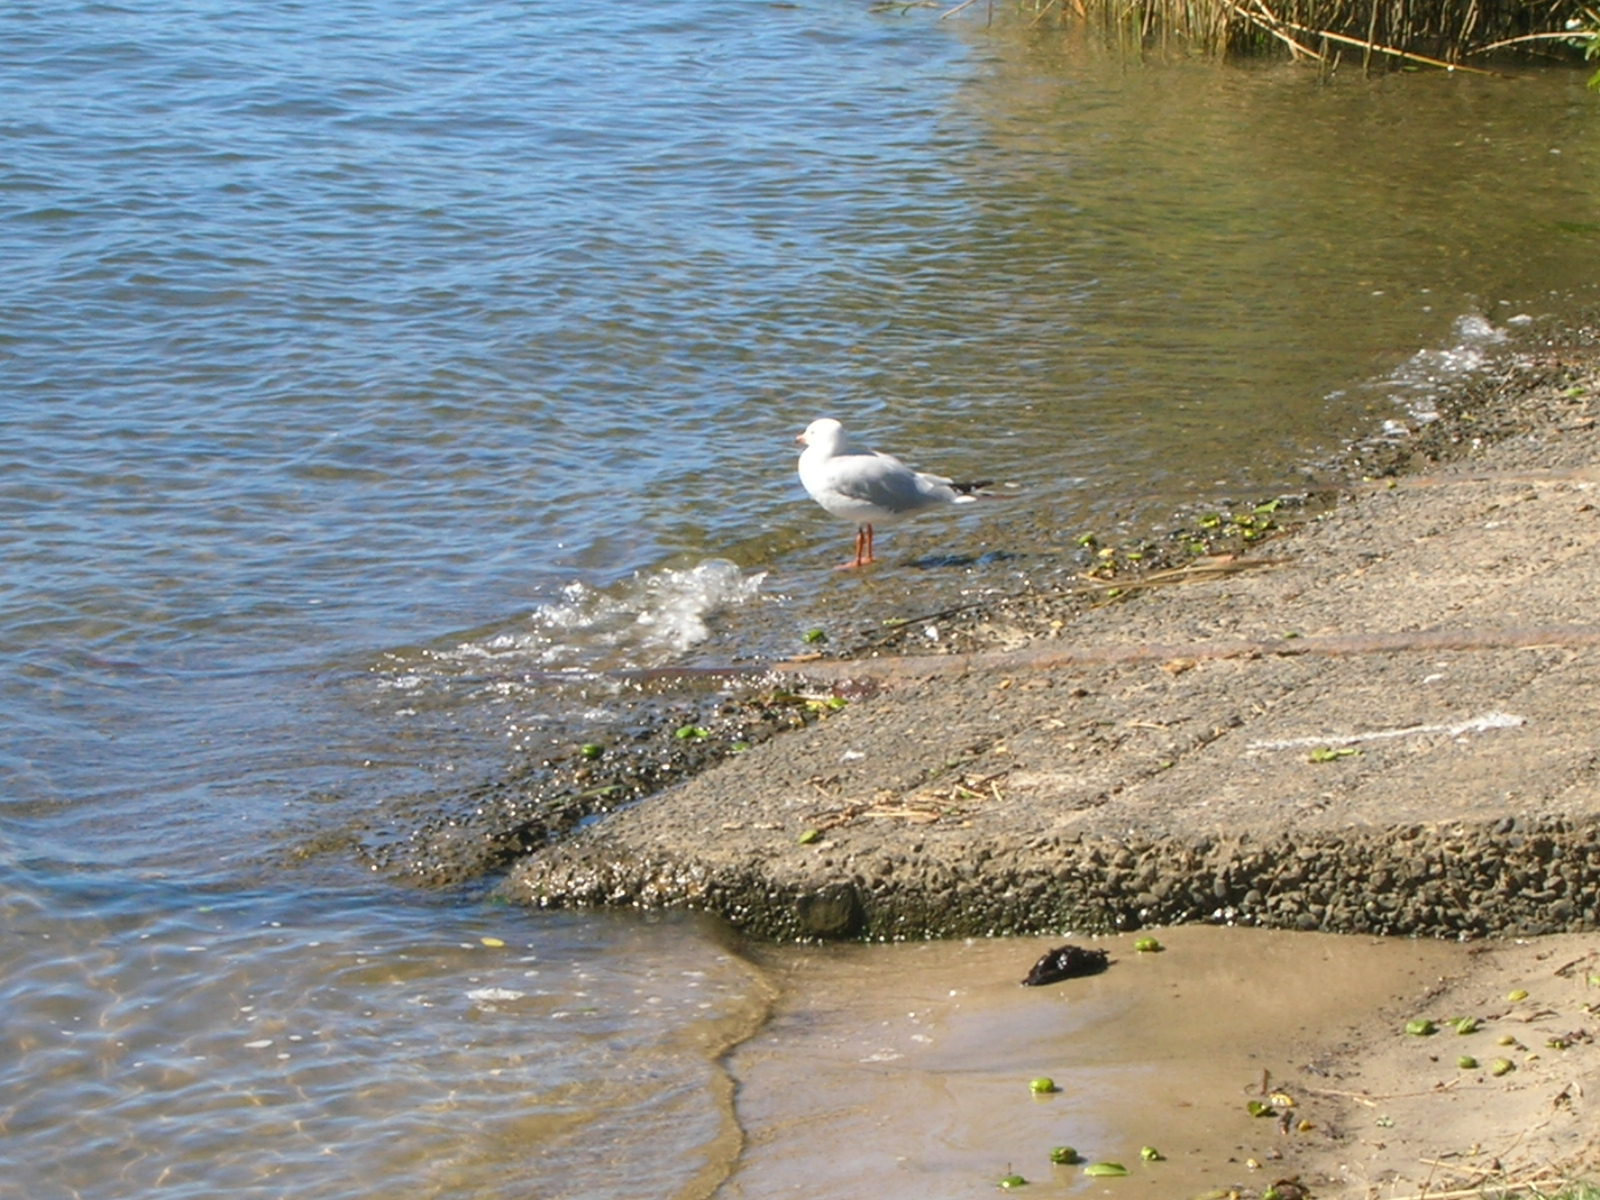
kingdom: Animalia
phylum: Chordata
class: Aves
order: Charadriiformes
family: Laridae
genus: Chroicocephalus
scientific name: Chroicocephalus novaehollandiae
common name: Silver gull
